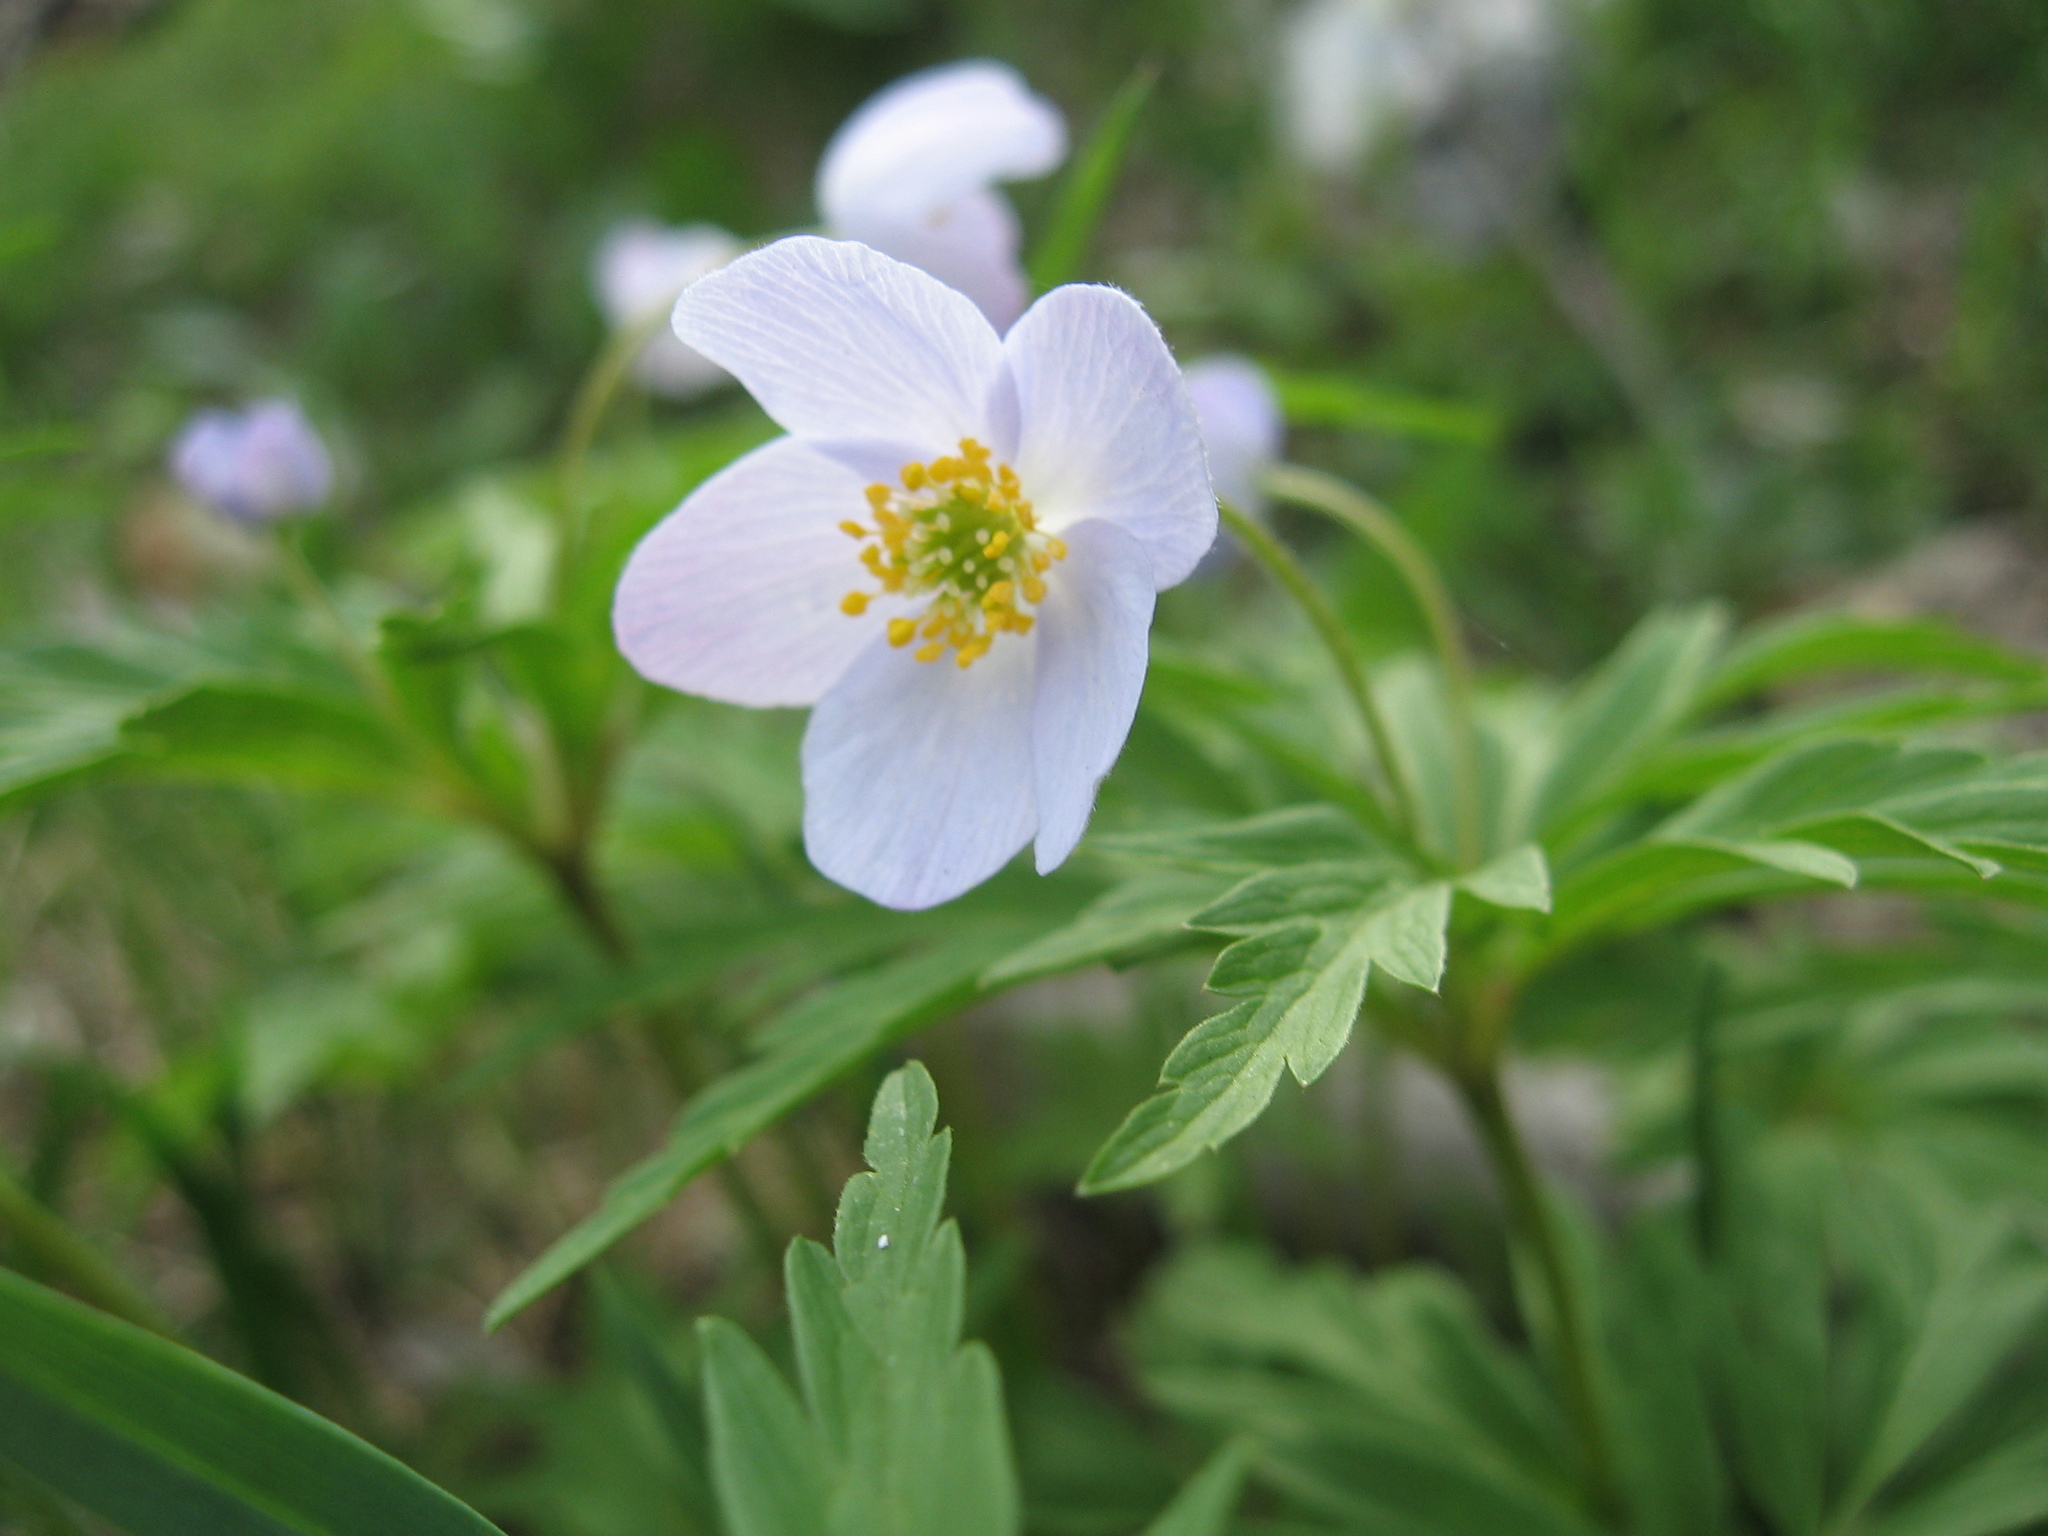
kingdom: Plantae
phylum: Tracheophyta
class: Magnoliopsida
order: Ranunculales
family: Ranunculaceae
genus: Anemone
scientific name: Anemone caerulea
